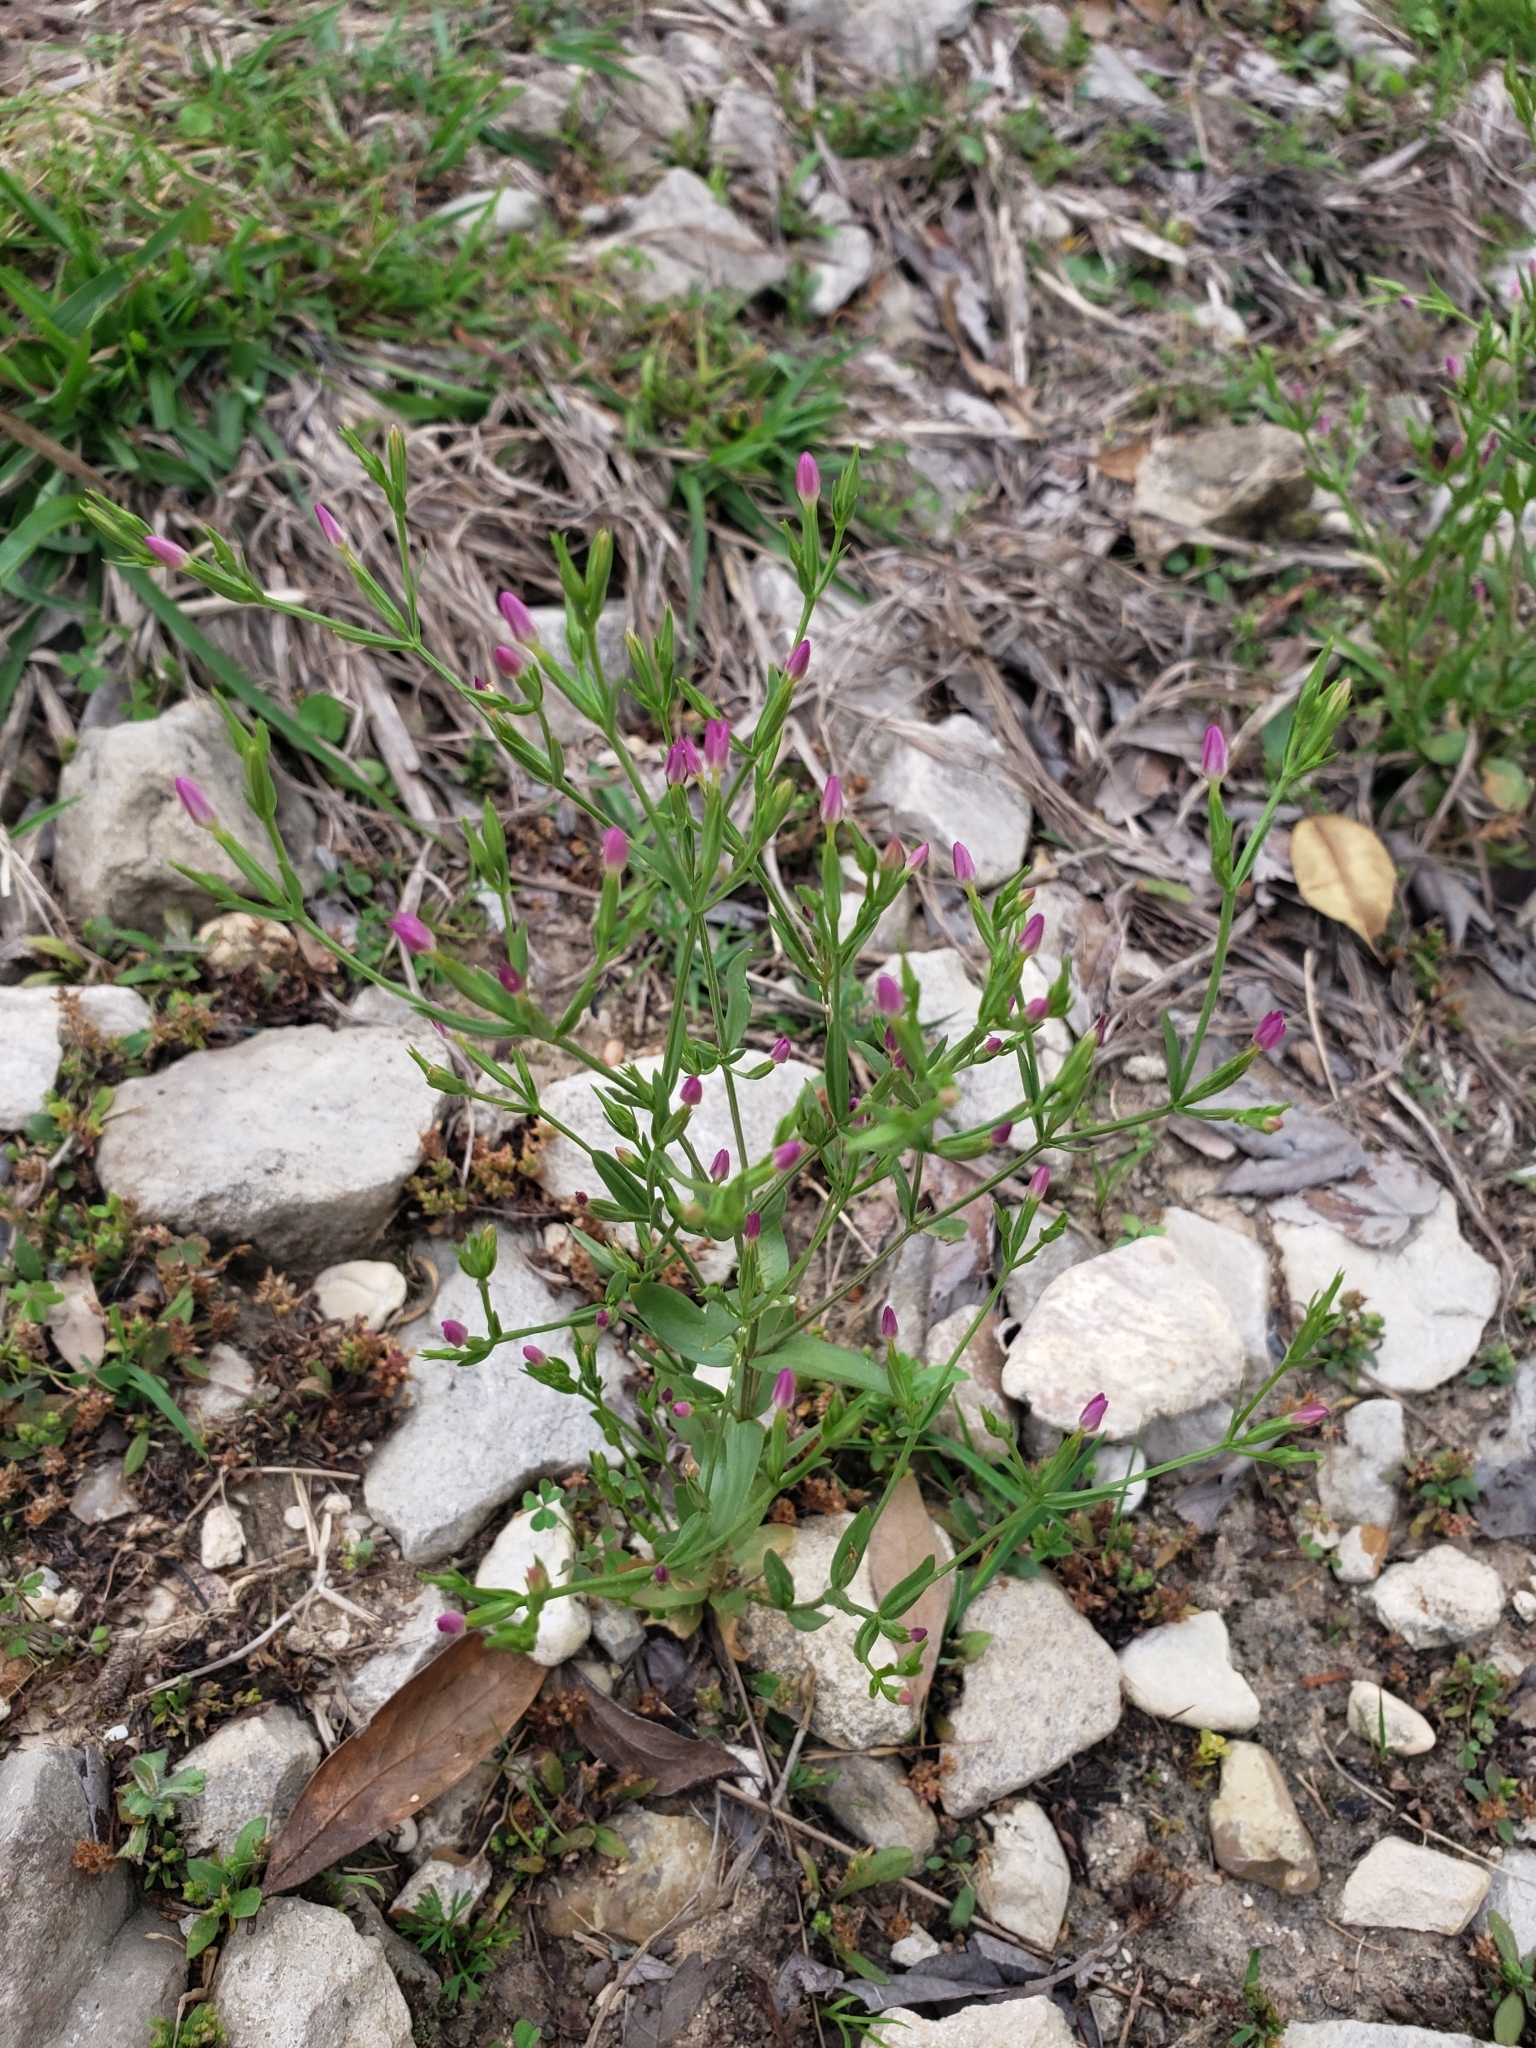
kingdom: Plantae
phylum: Tracheophyta
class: Magnoliopsida
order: Gentianales
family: Gentianaceae
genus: Centaurium
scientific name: Centaurium pulchellum
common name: Lesser centaury
